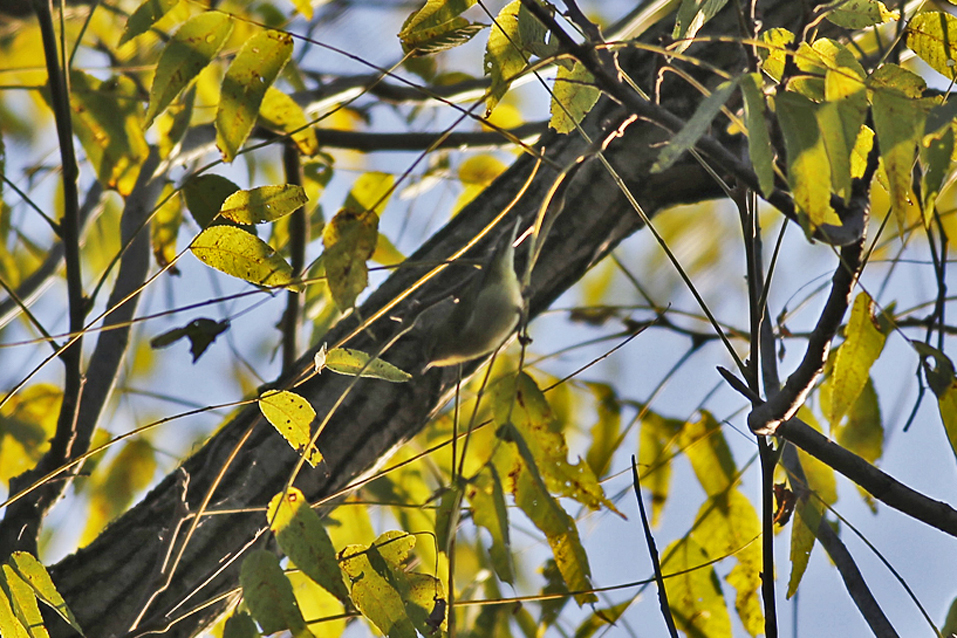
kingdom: Animalia
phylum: Chordata
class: Aves
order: Passeriformes
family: Parulidae
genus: Leiothlypis
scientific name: Leiothlypis peregrina
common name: Tennessee warbler
